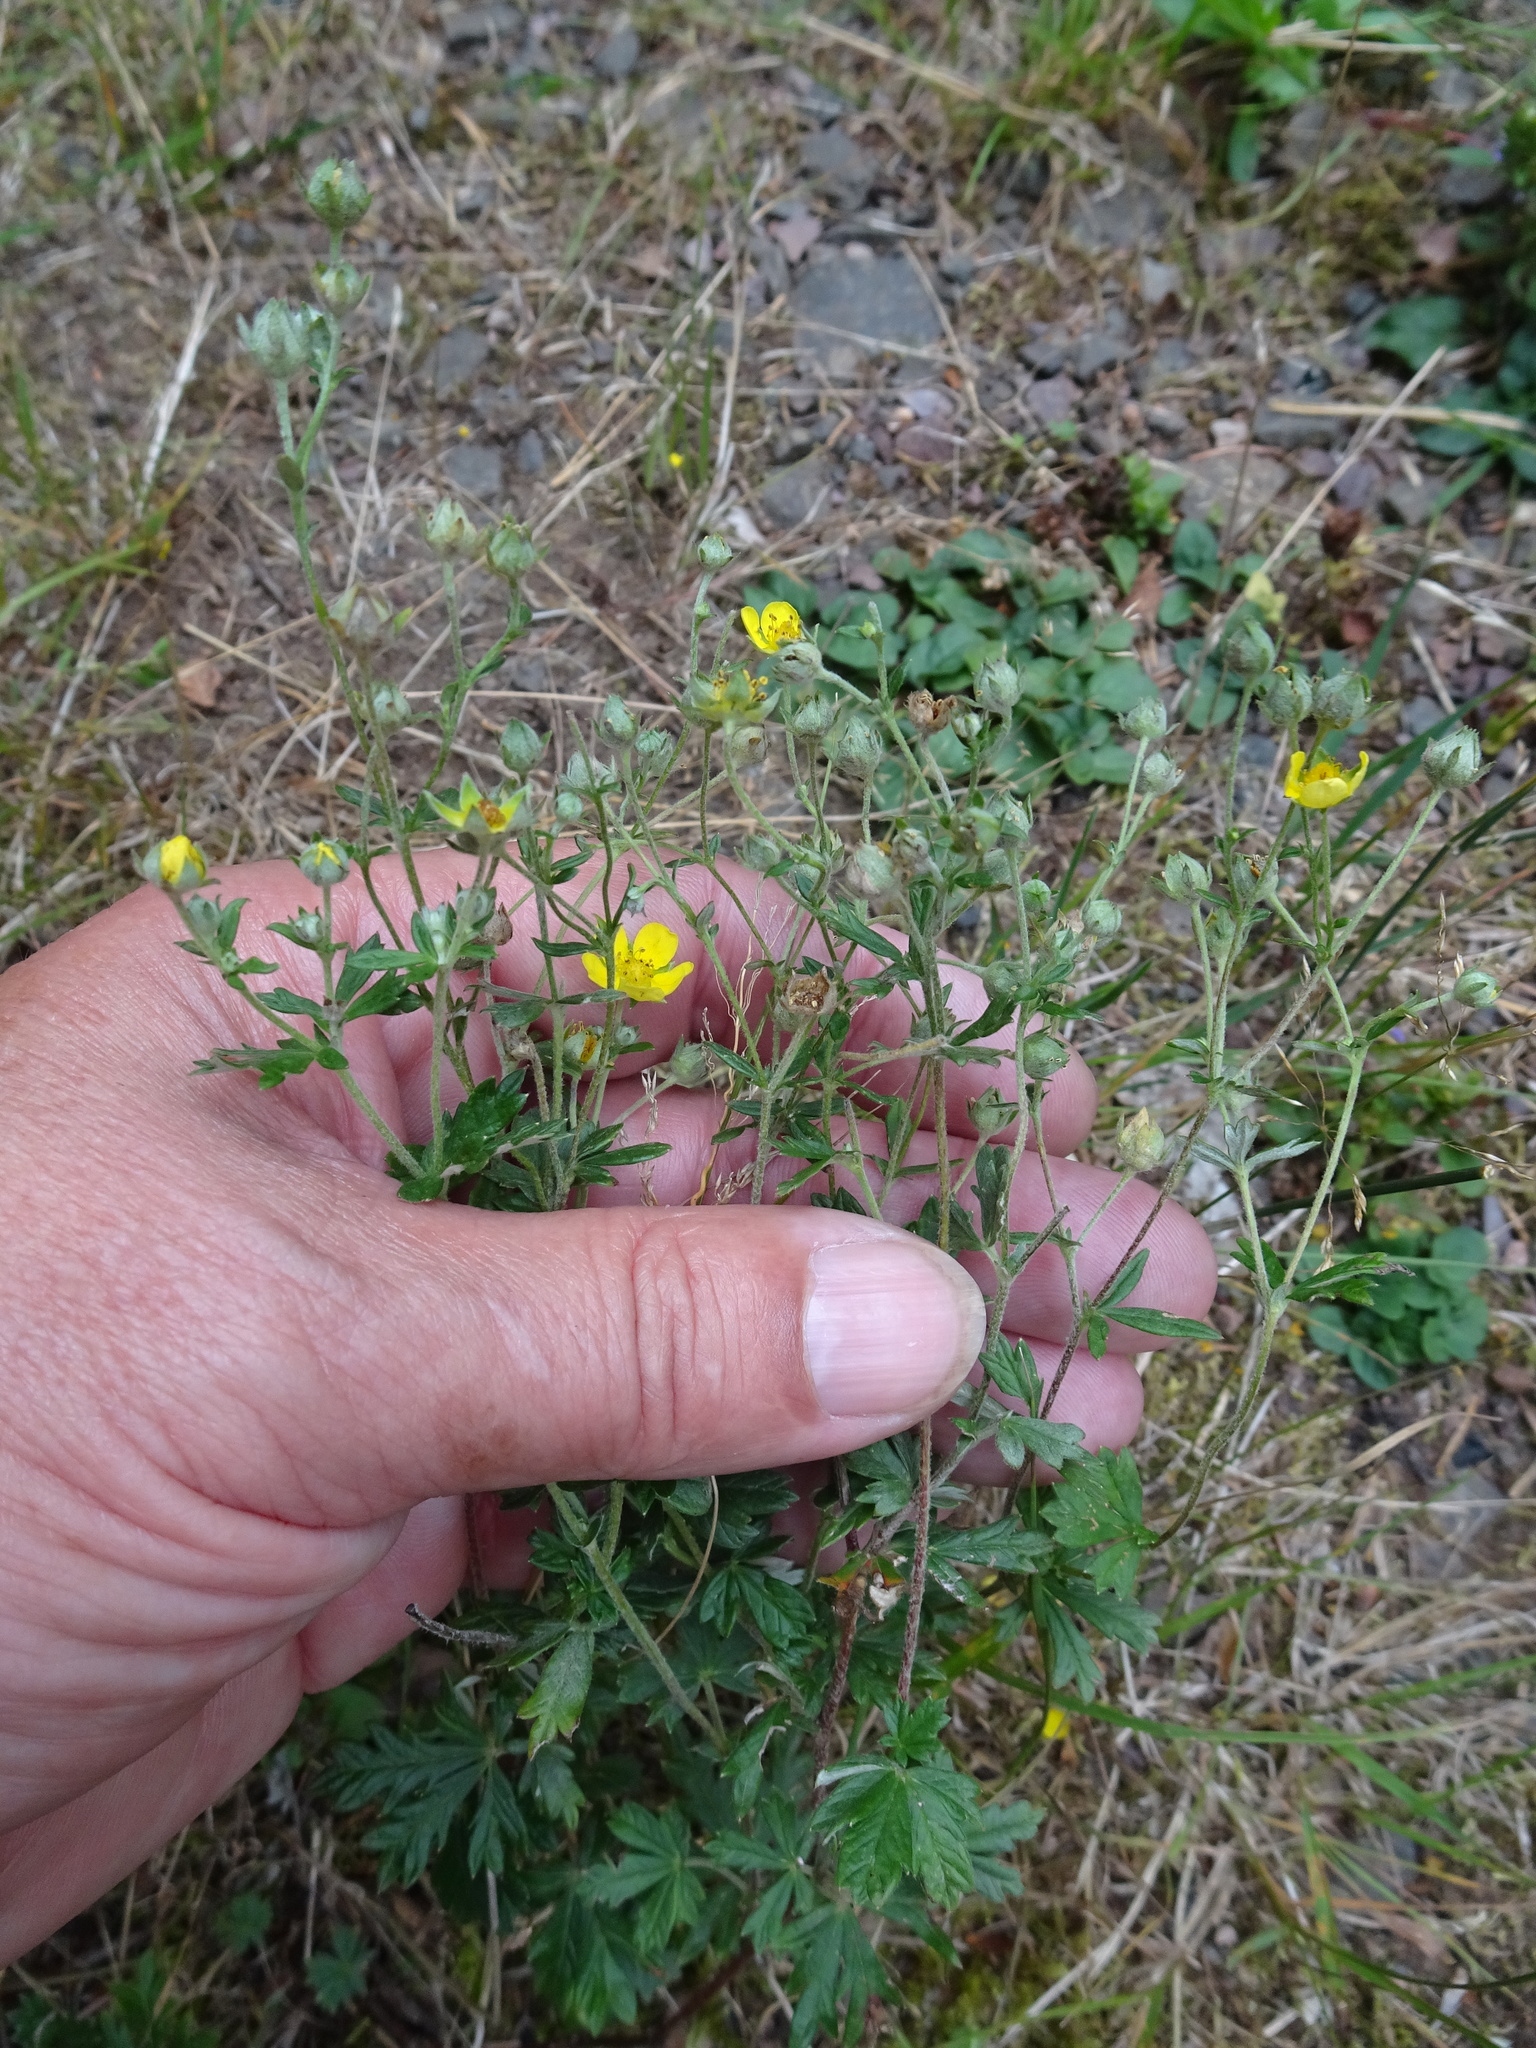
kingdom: Plantae
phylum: Tracheophyta
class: Magnoliopsida
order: Rosales
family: Rosaceae
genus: Potentilla
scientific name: Potentilla argentea
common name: Hoary cinquefoil
